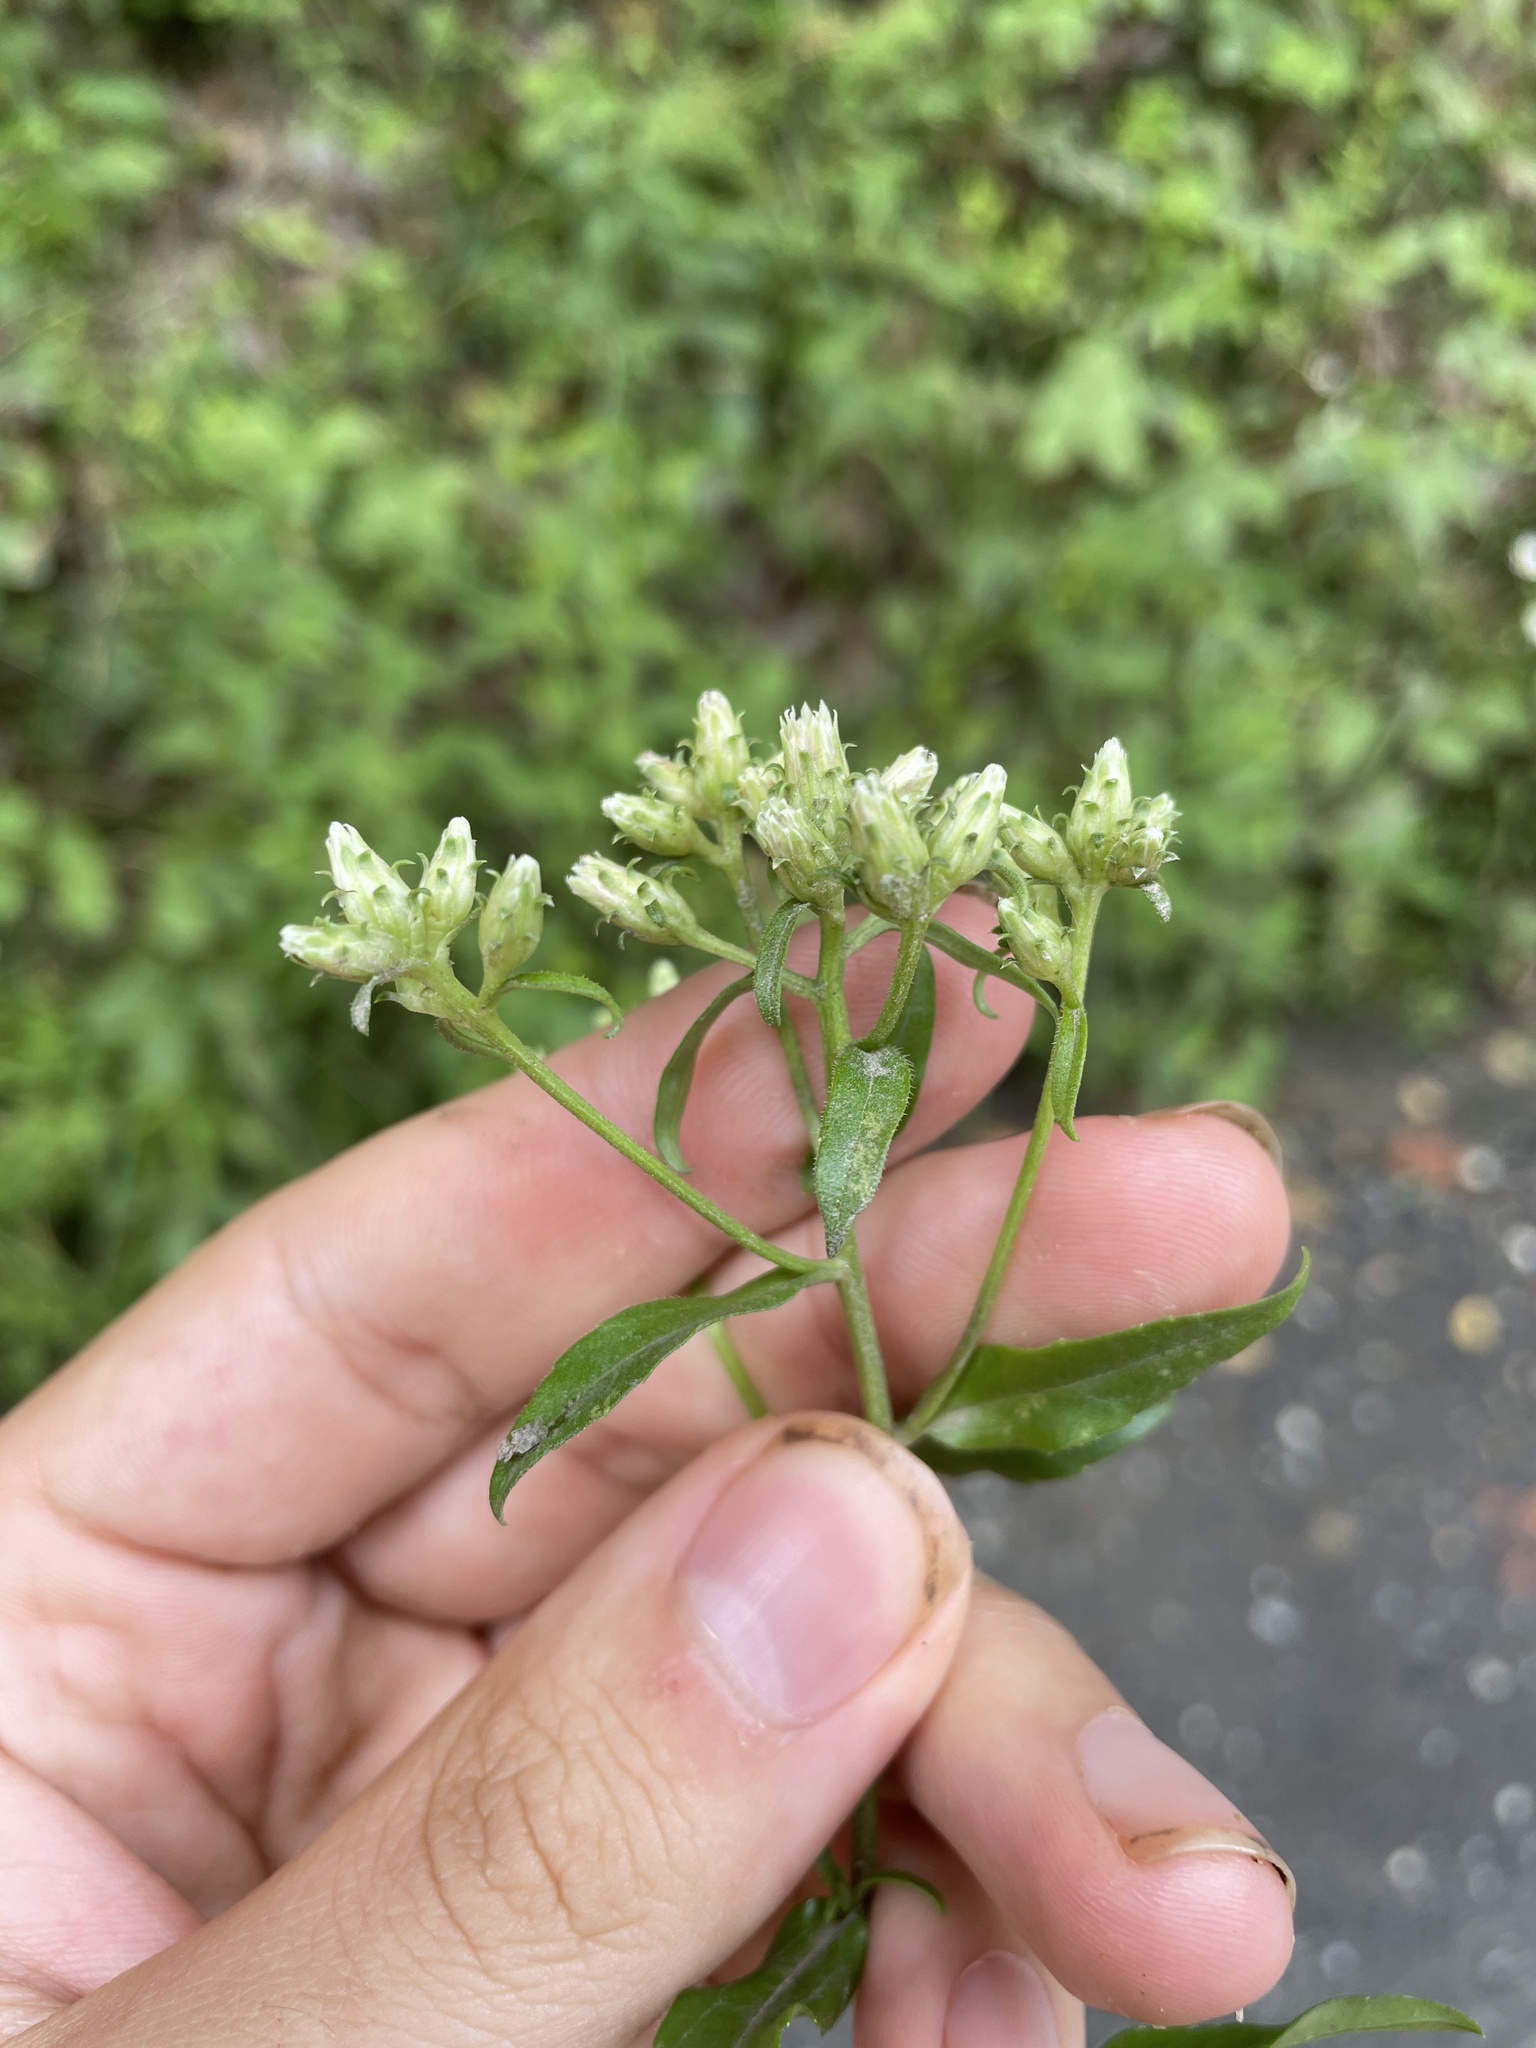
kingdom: Plantae
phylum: Tracheophyta
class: Magnoliopsida
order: Asterales
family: Asteraceae
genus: Sericocarpus
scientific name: Sericocarpus asteroides
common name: Toothed white-top aster
